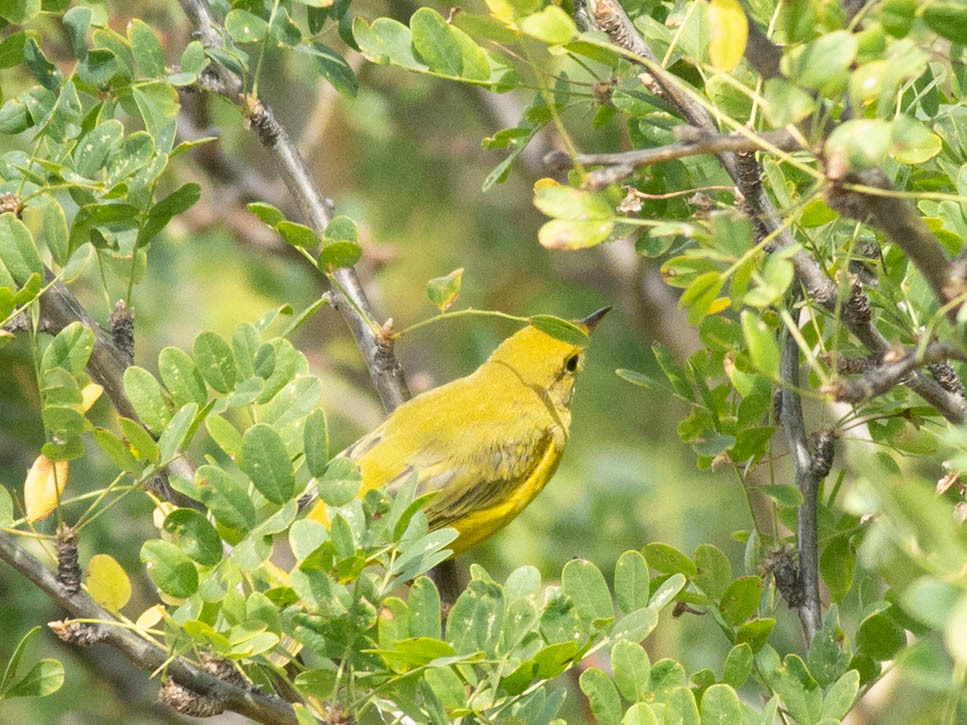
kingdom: Animalia
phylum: Chordata
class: Aves
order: Passeriformes
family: Parulidae
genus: Setophaga
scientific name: Setophaga petechia
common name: Yellow warbler
